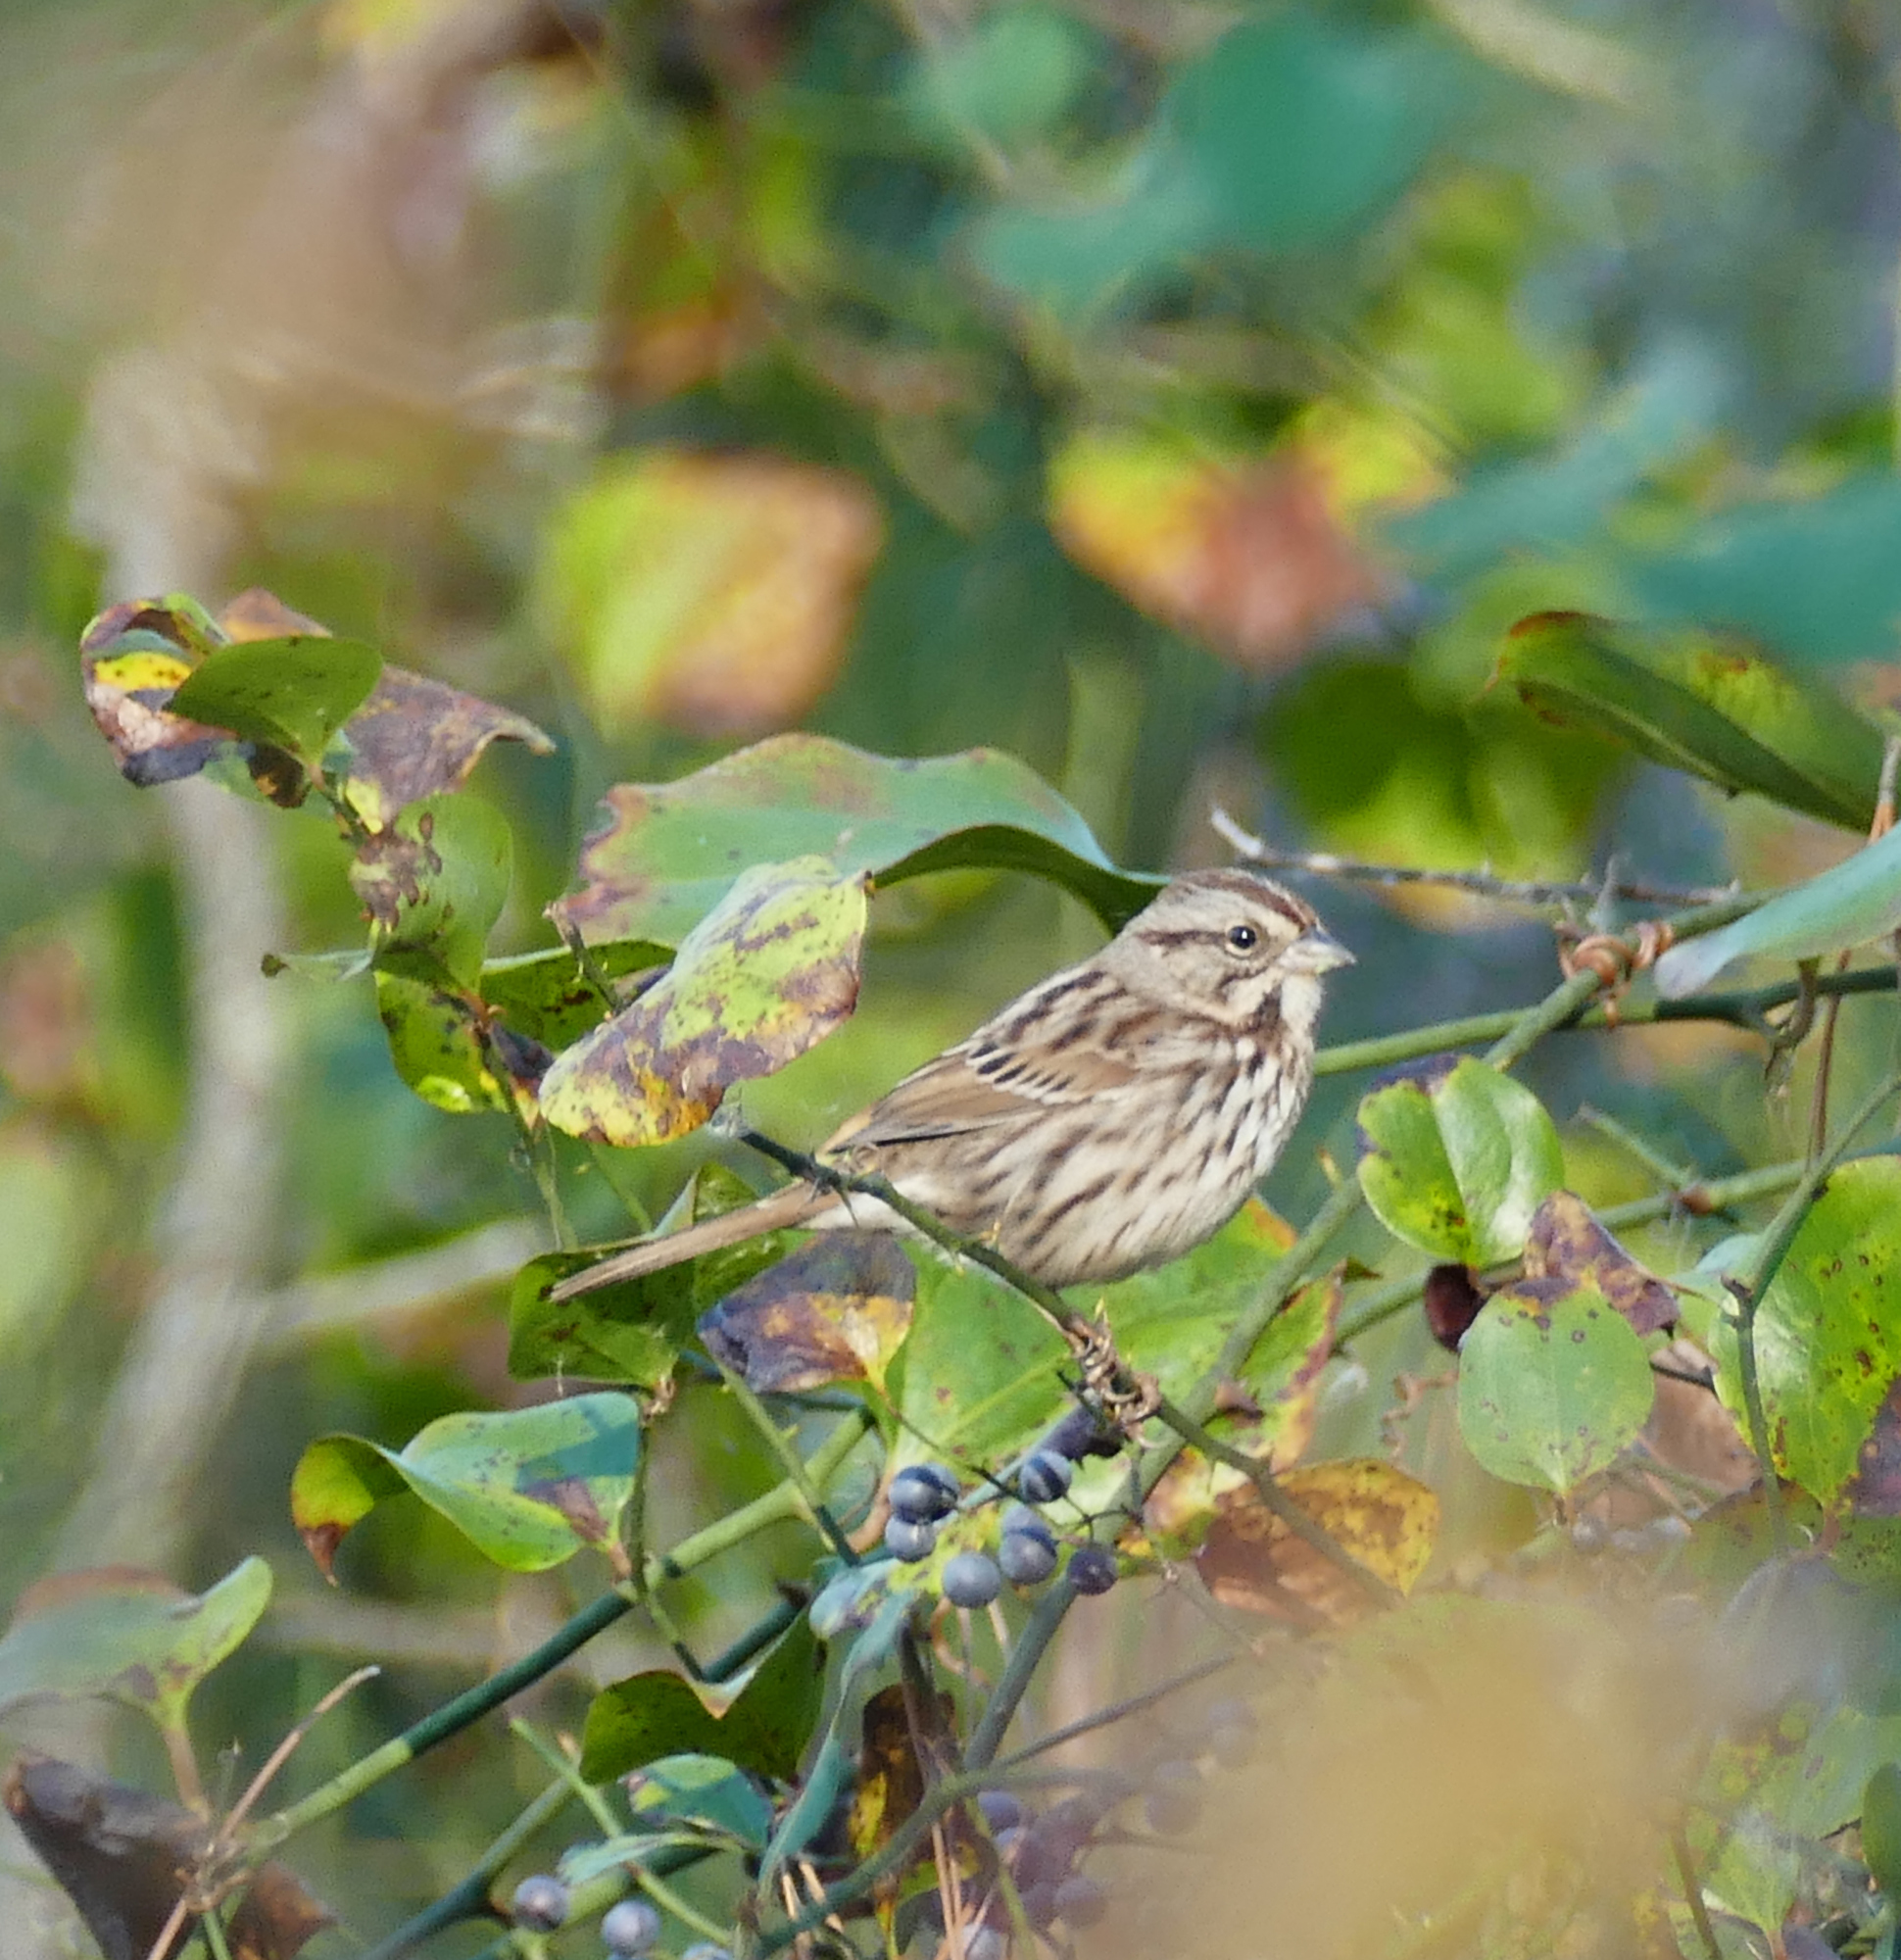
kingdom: Animalia
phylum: Chordata
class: Aves
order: Passeriformes
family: Passerellidae
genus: Melospiza
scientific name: Melospiza melodia
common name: Song sparrow
